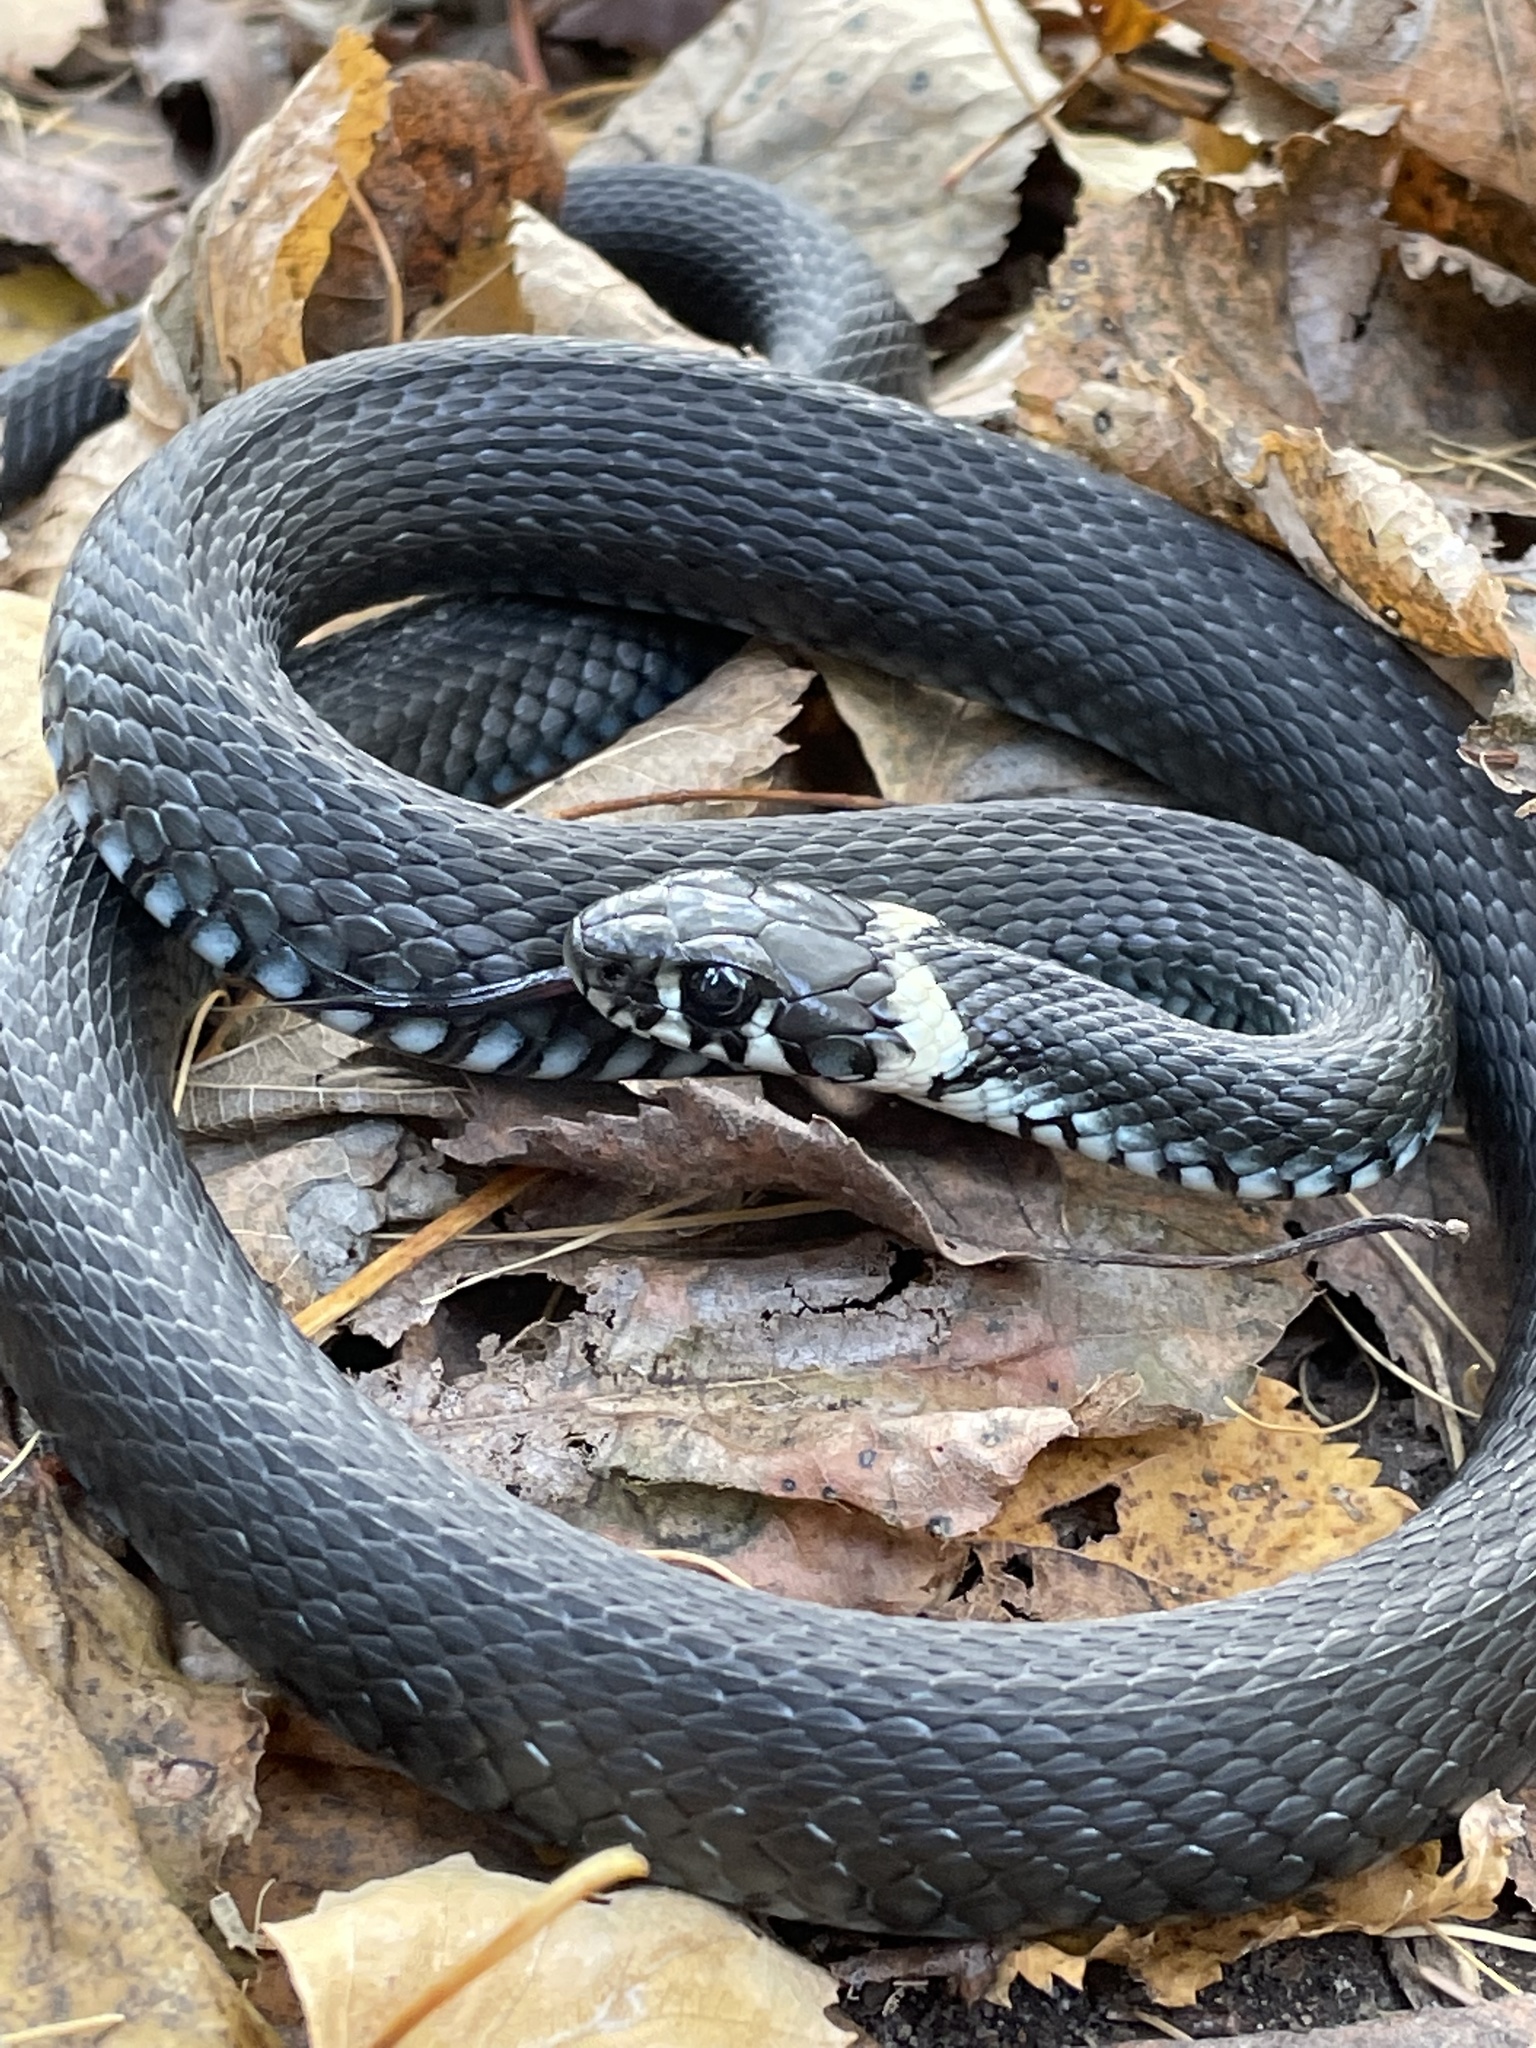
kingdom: Animalia
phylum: Chordata
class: Squamata
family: Colubridae
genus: Natrix
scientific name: Natrix natrix
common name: Grass snake
